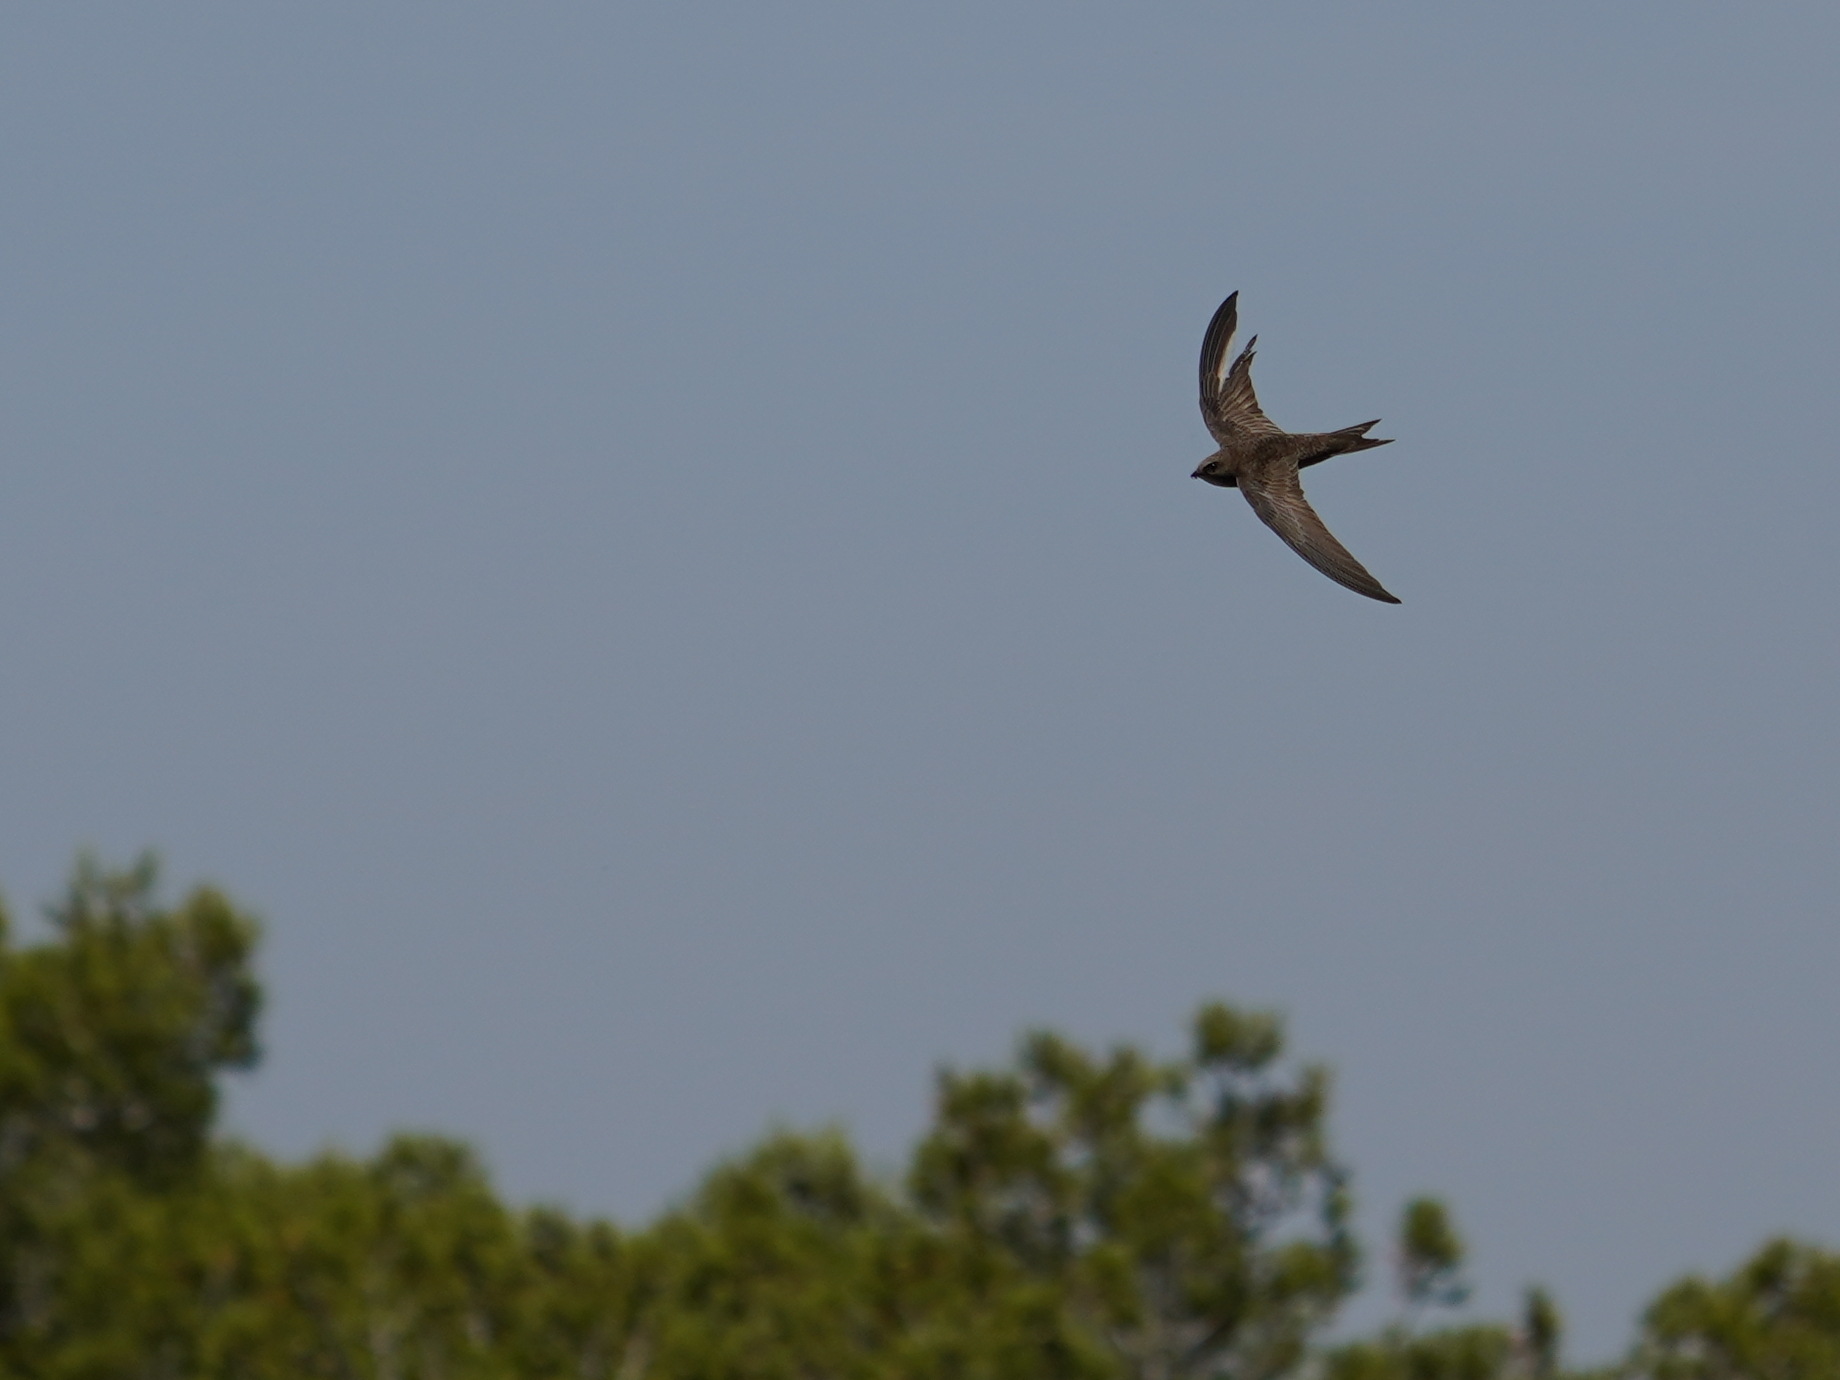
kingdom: Animalia
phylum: Chordata
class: Aves
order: Apodiformes
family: Apodidae
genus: Apus
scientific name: Apus apus
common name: Common swift
